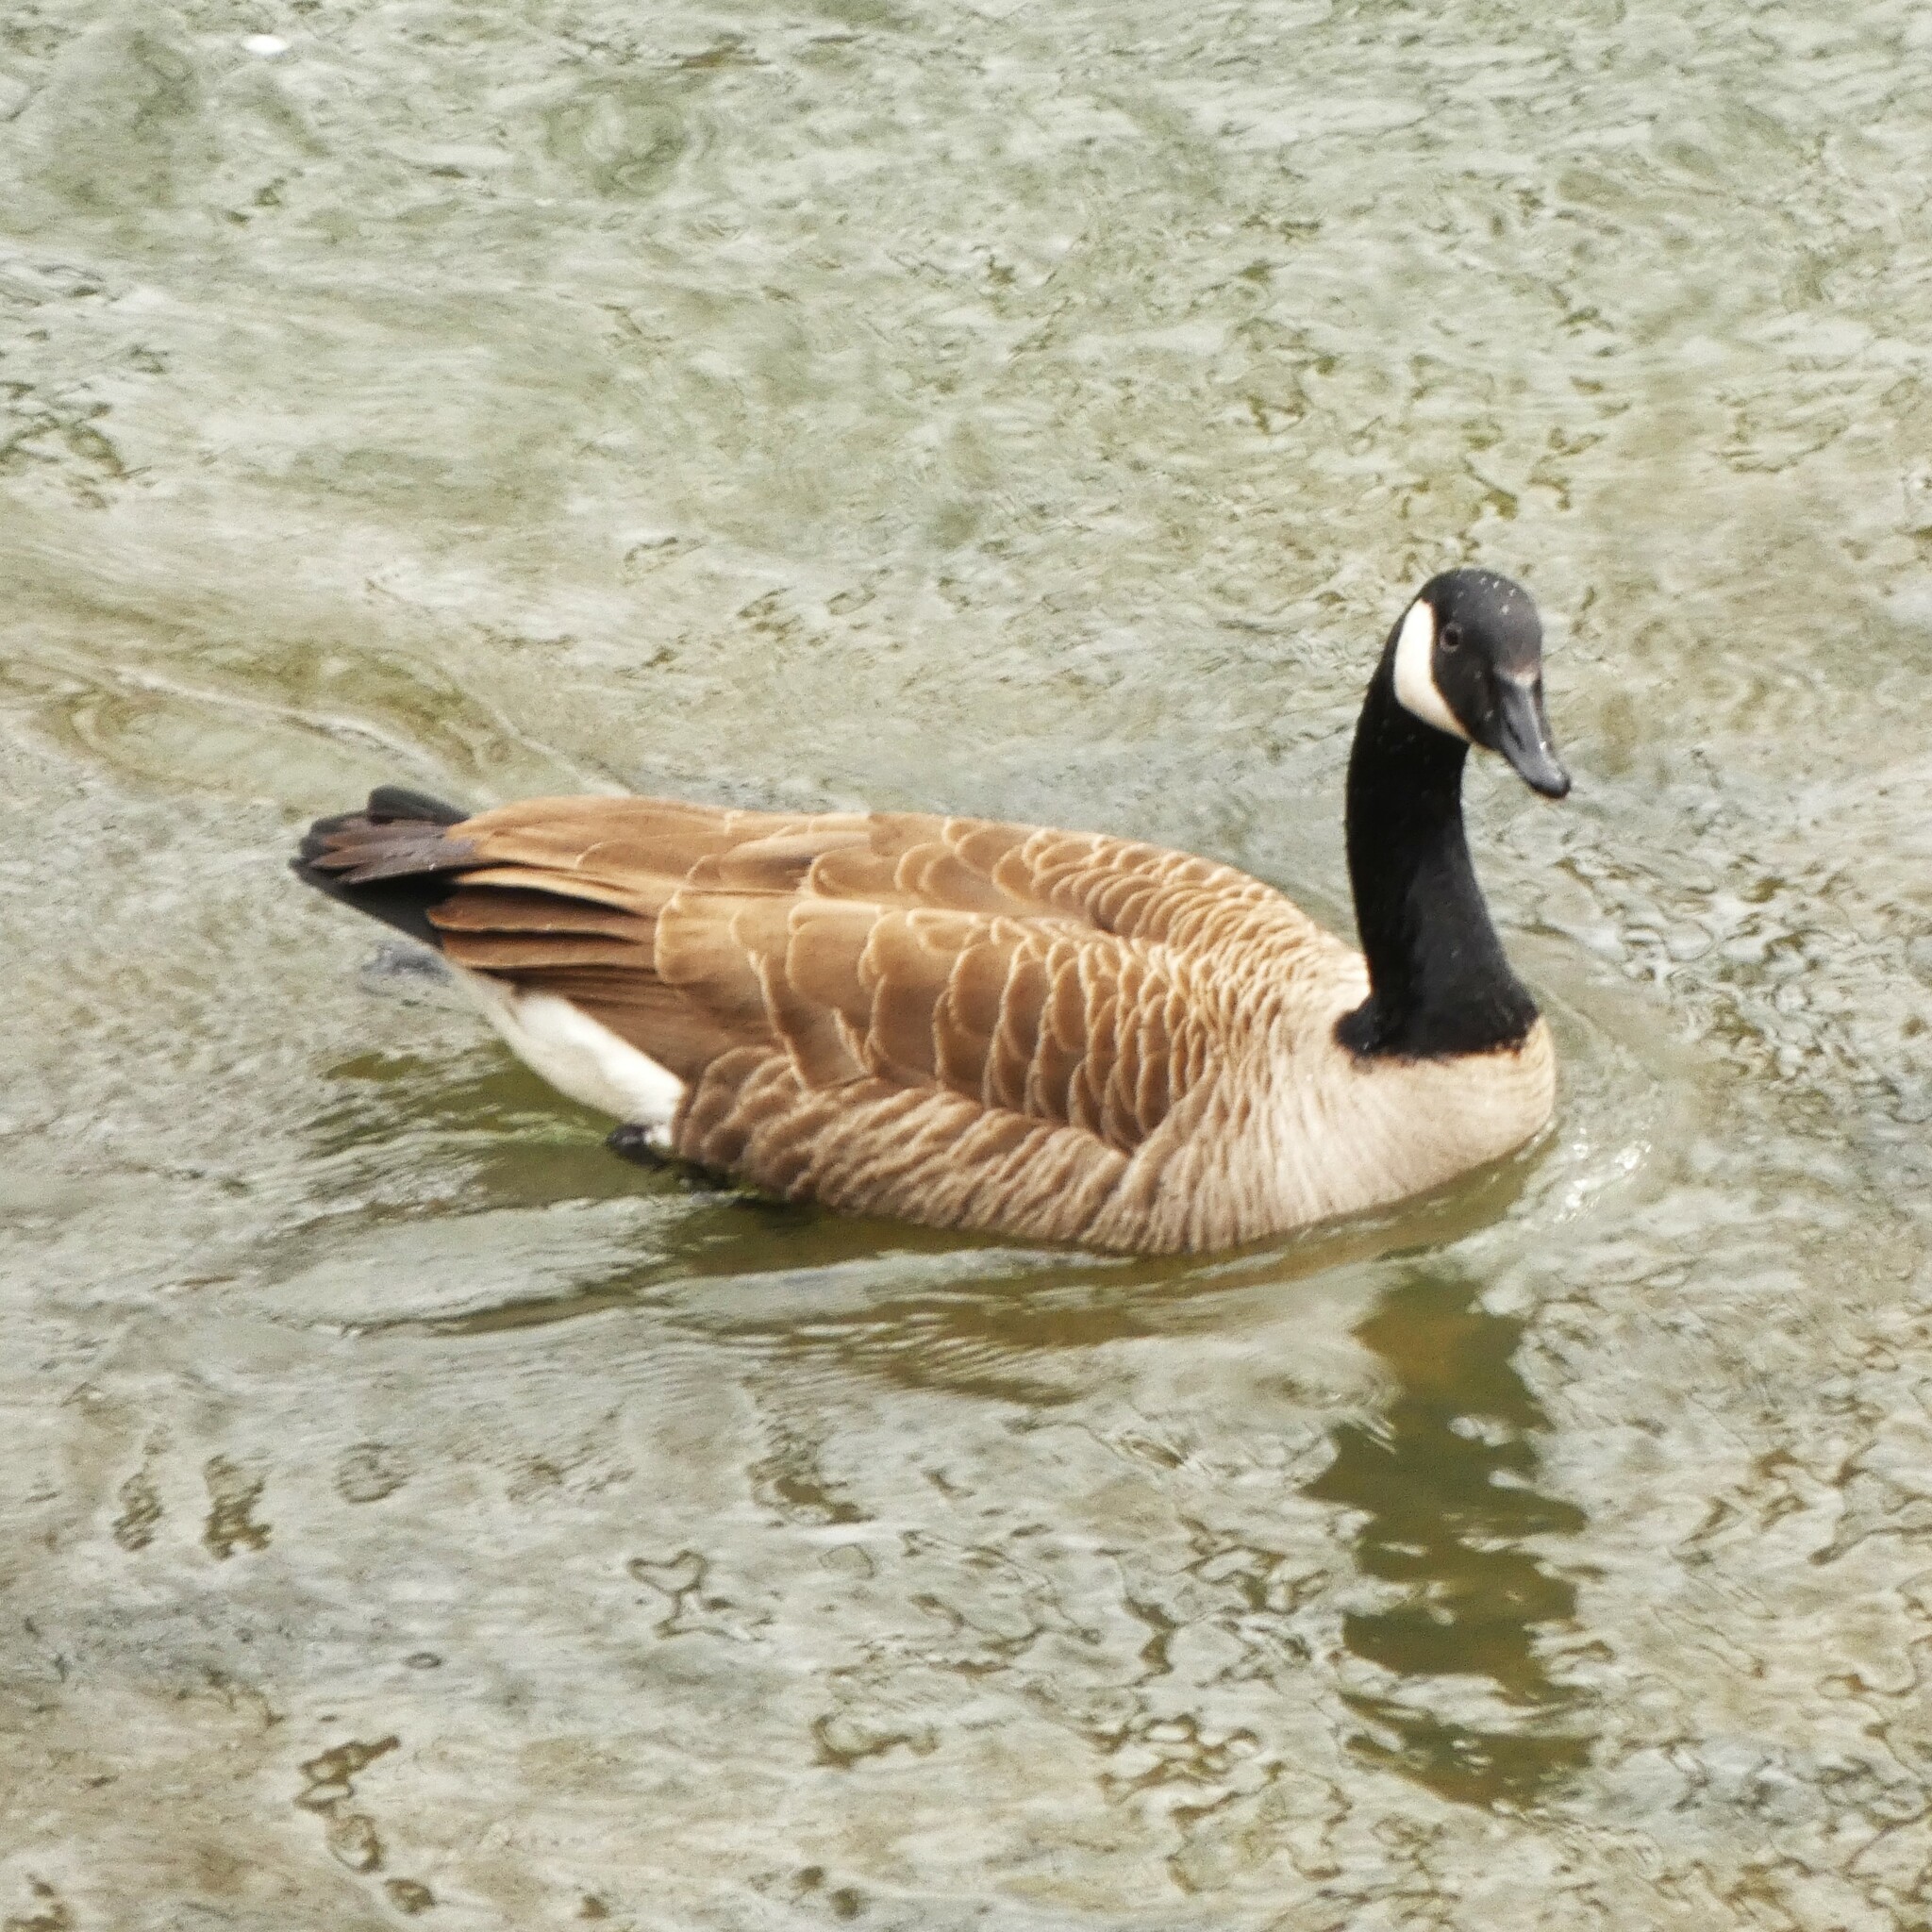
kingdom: Animalia
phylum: Chordata
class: Aves
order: Anseriformes
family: Anatidae
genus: Branta
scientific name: Branta canadensis
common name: Canada goose
